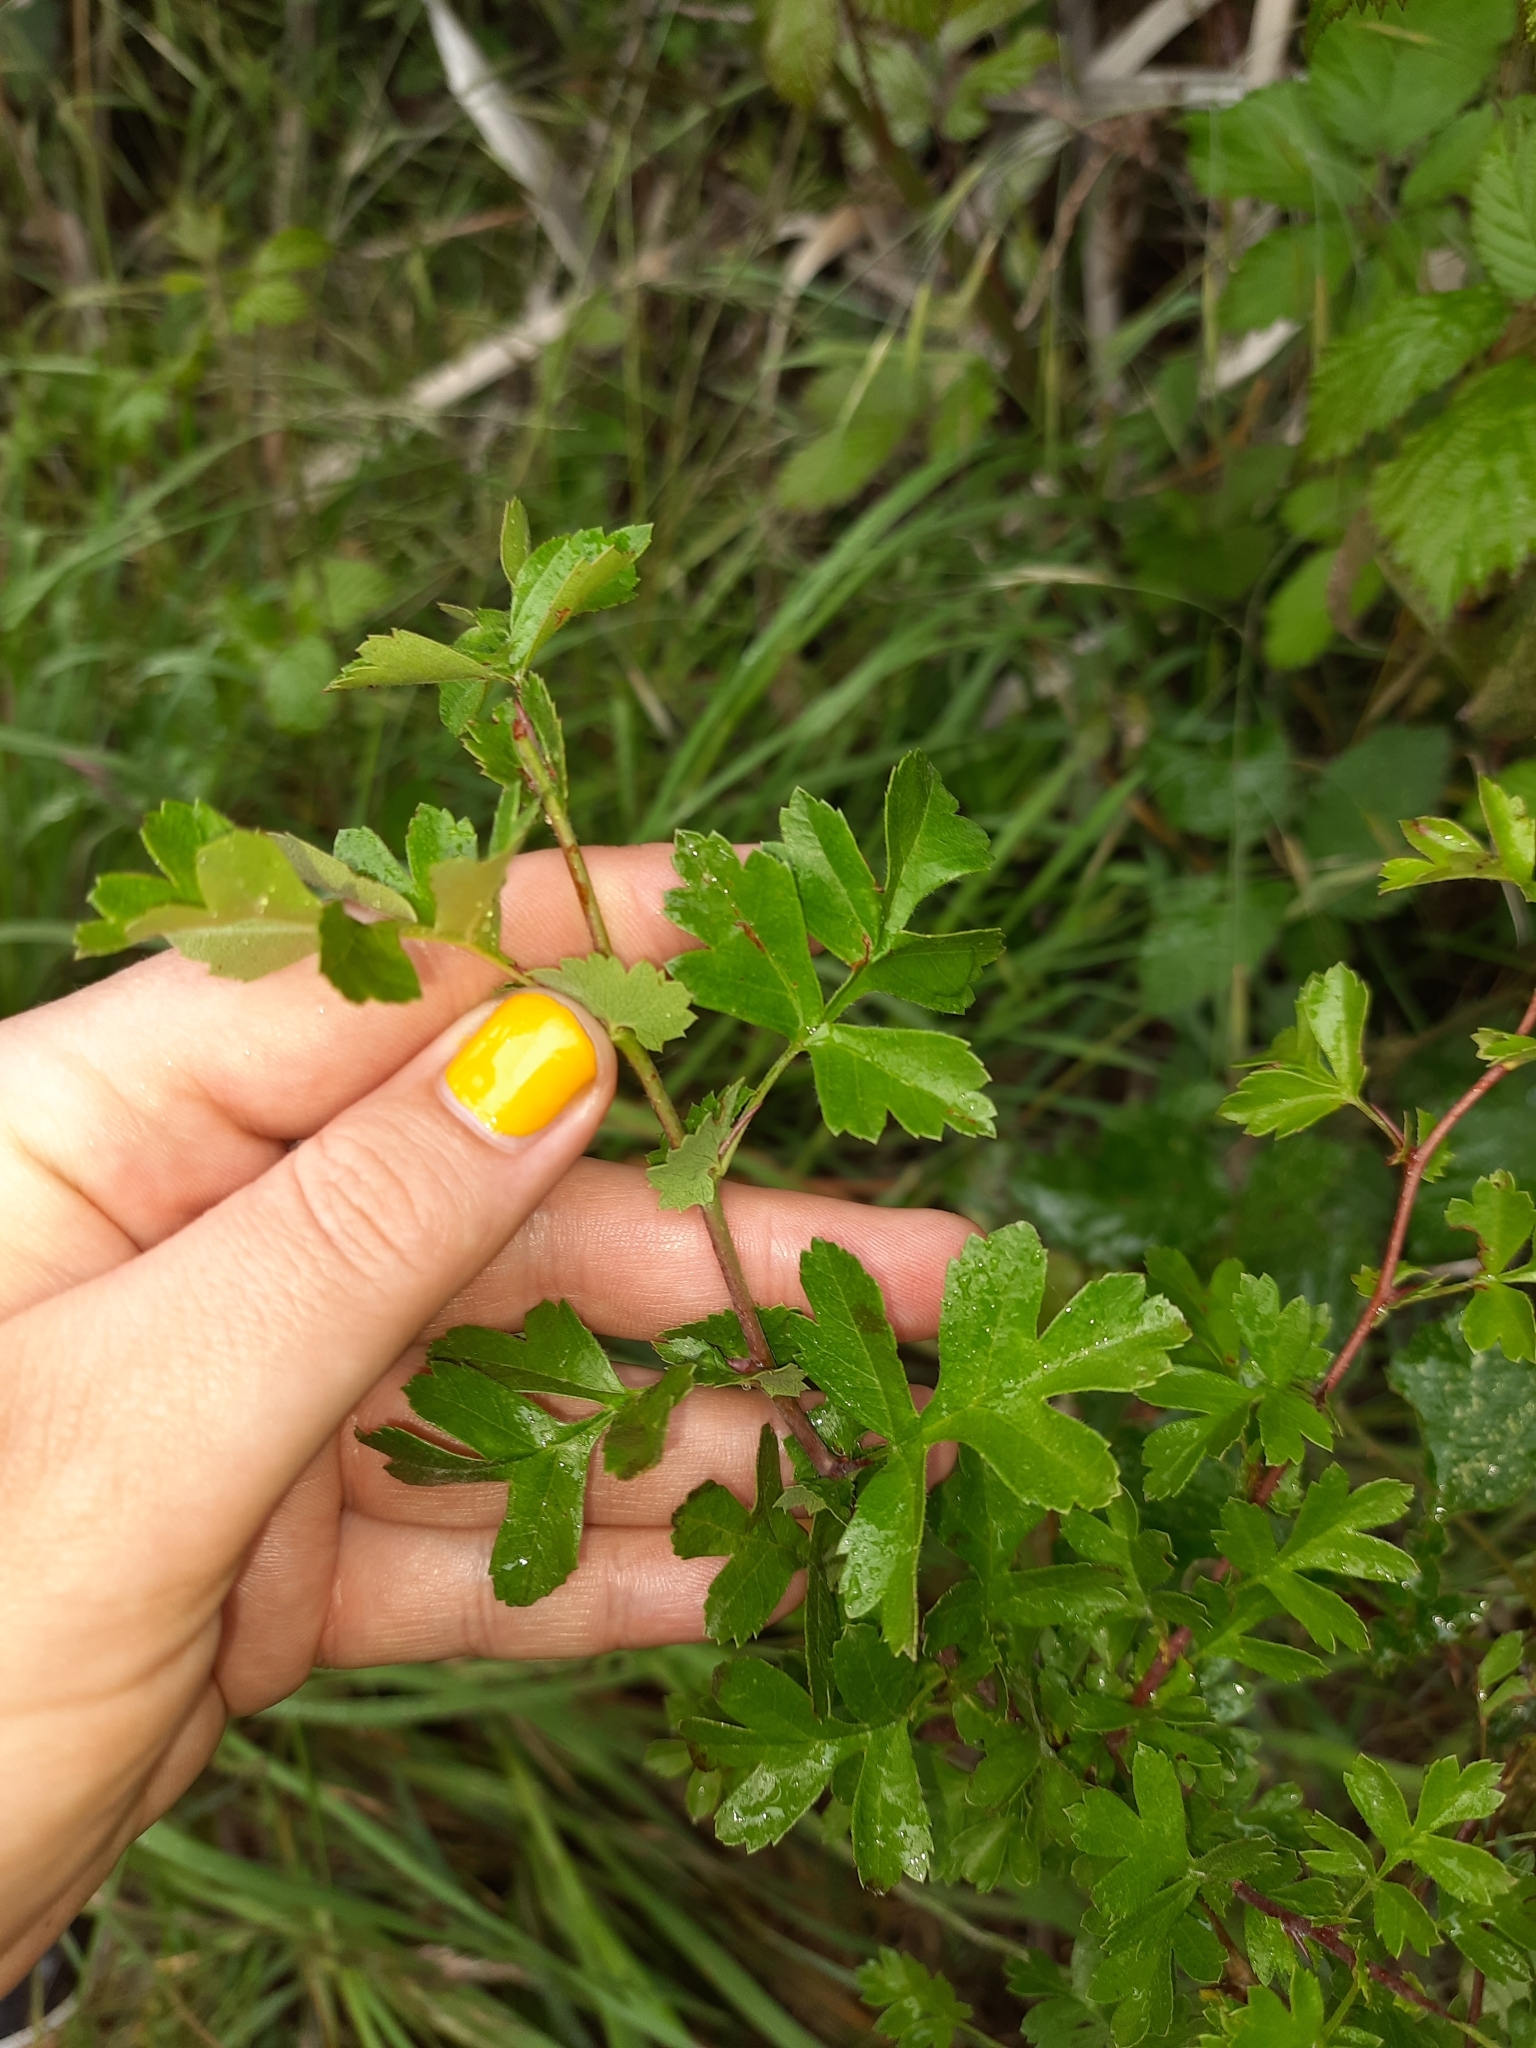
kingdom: Plantae
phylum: Tracheophyta
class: Magnoliopsida
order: Rosales
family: Rosaceae
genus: Crataegus
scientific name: Crataegus monogyna
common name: Hawthorn
